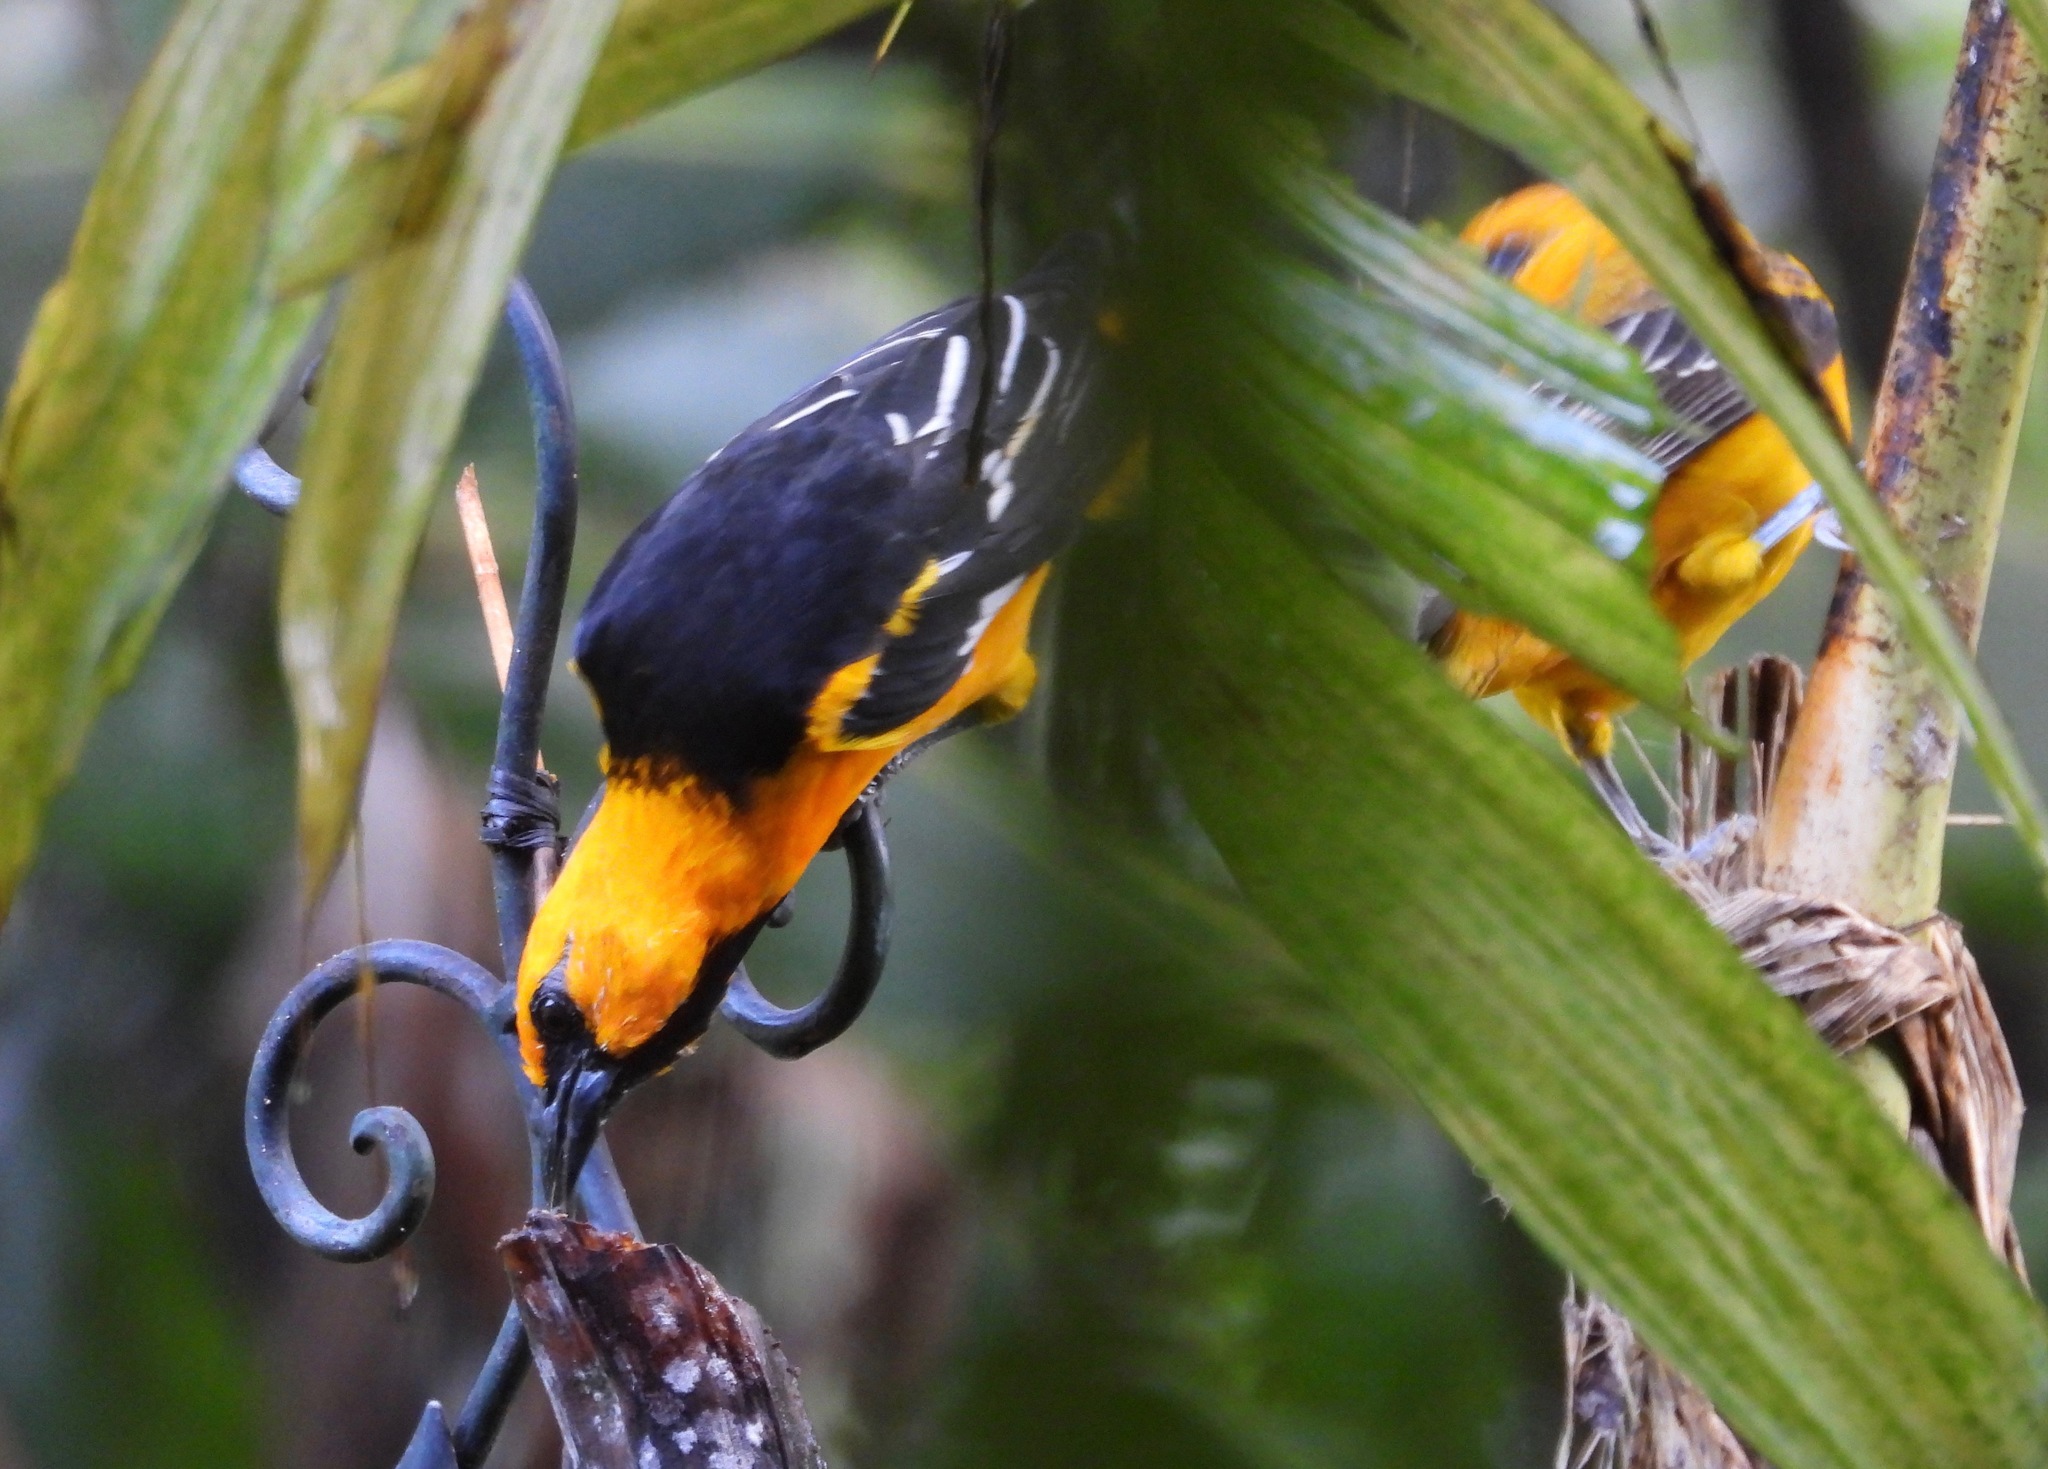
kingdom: Animalia
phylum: Chordata
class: Aves
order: Passeriformes
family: Icteridae
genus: Icterus
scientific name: Icterus gularis
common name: Altamira oriole
